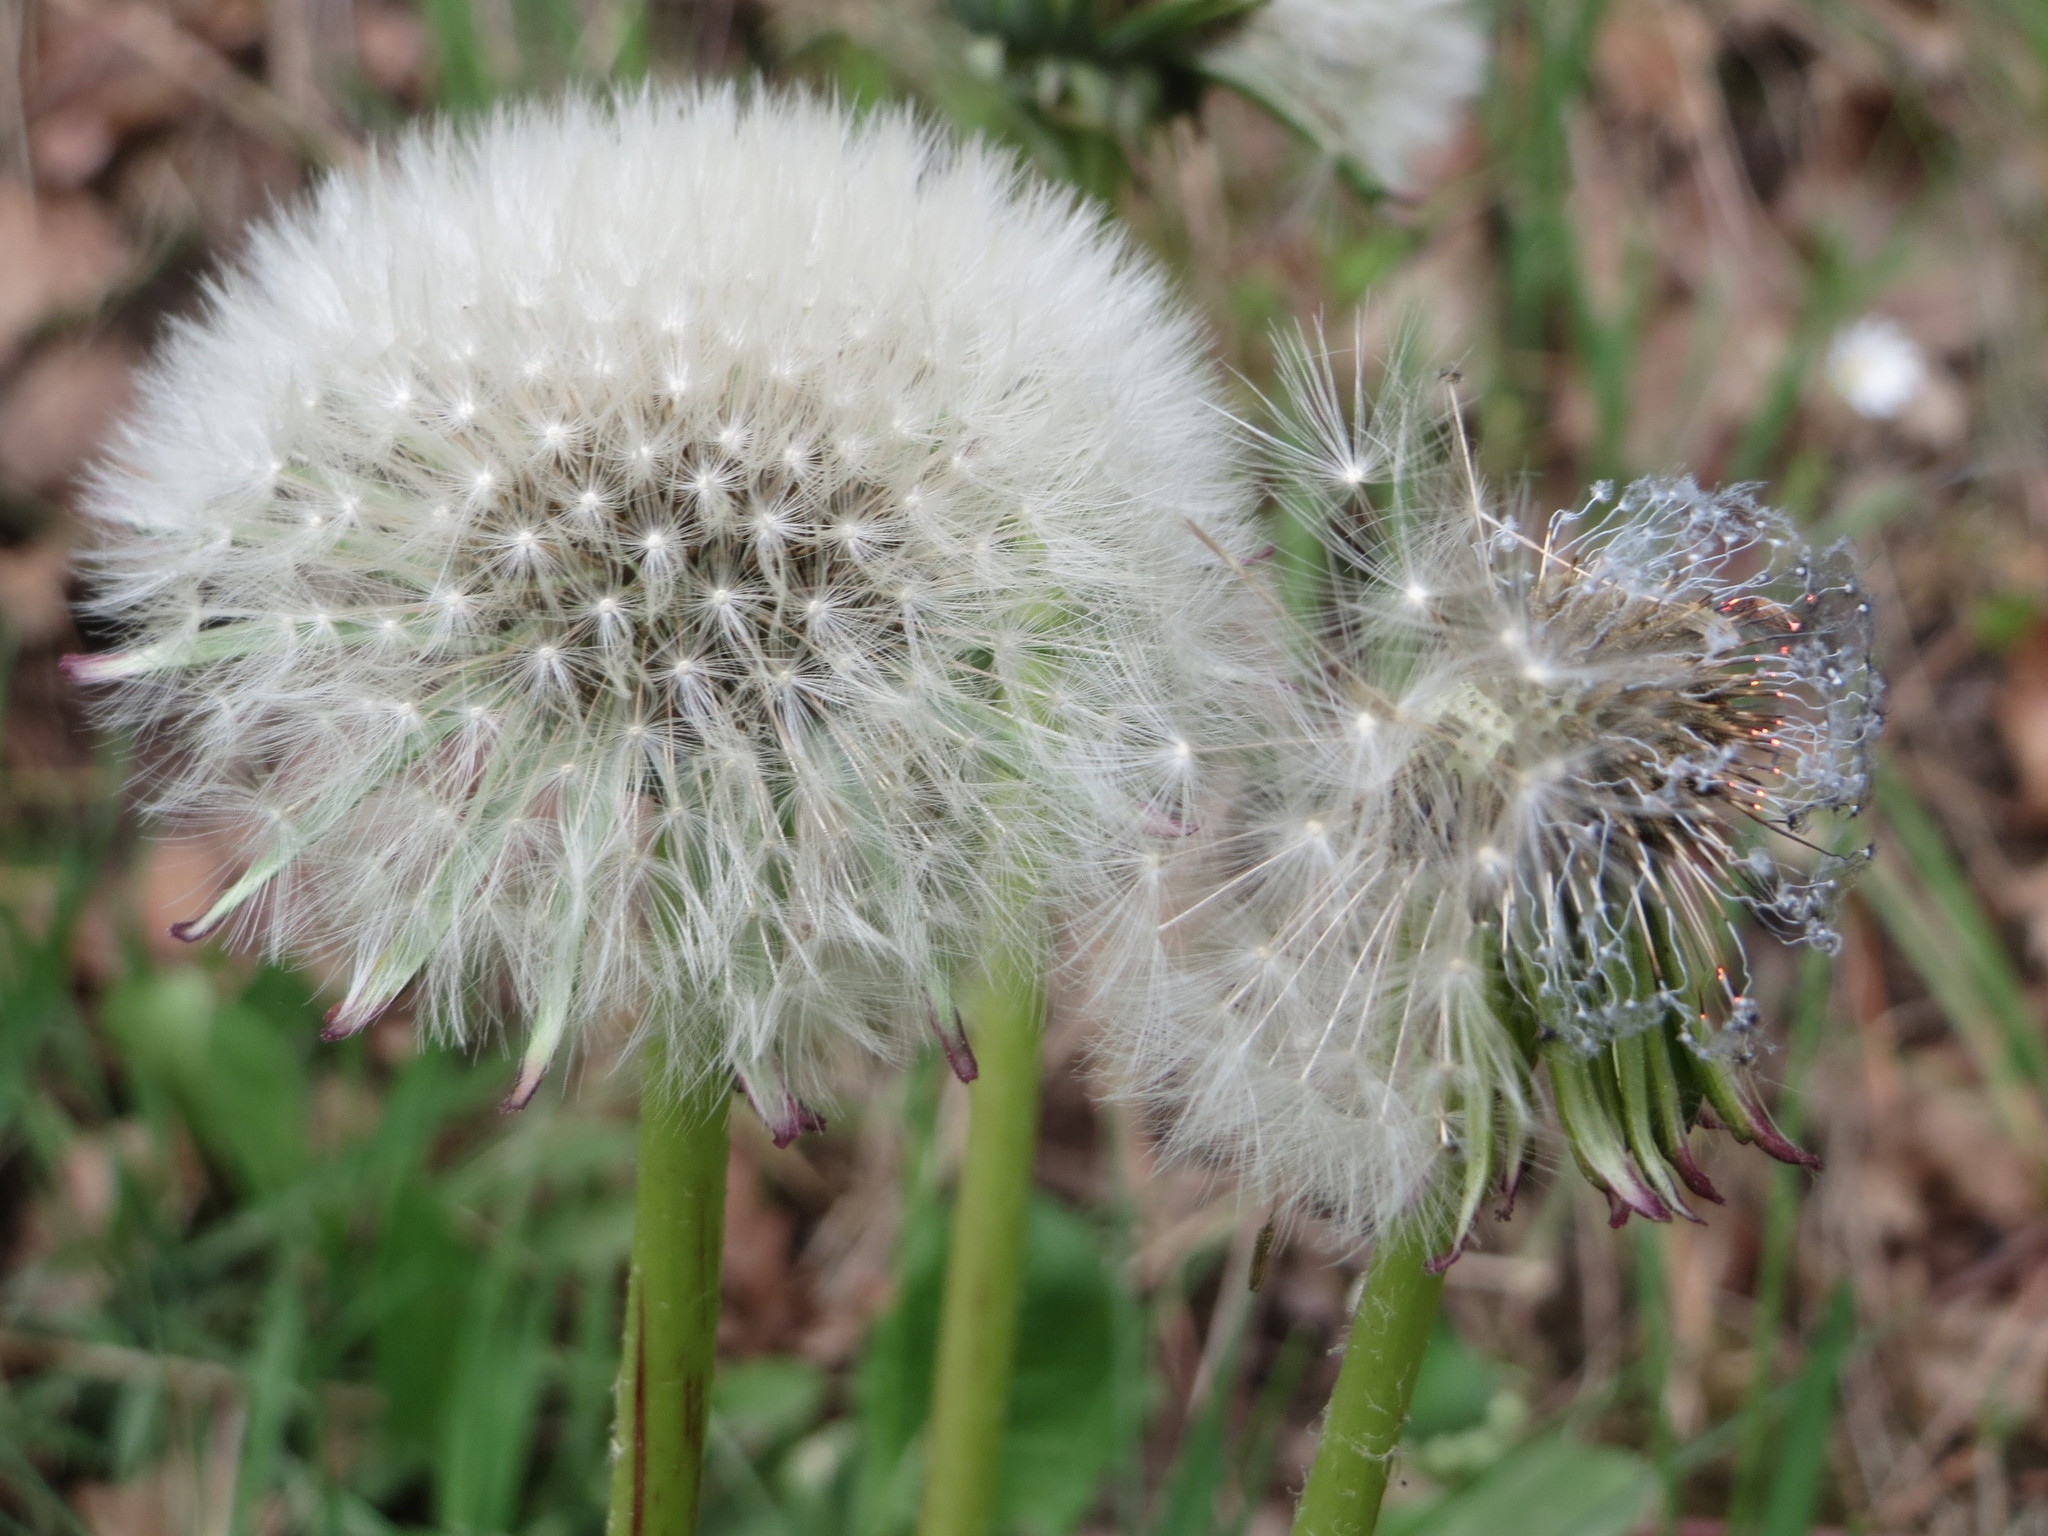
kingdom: Plantae
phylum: Tracheophyta
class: Magnoliopsida
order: Asterales
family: Asteraceae
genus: Taraxacum
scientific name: Taraxacum officinale
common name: Common dandelion
